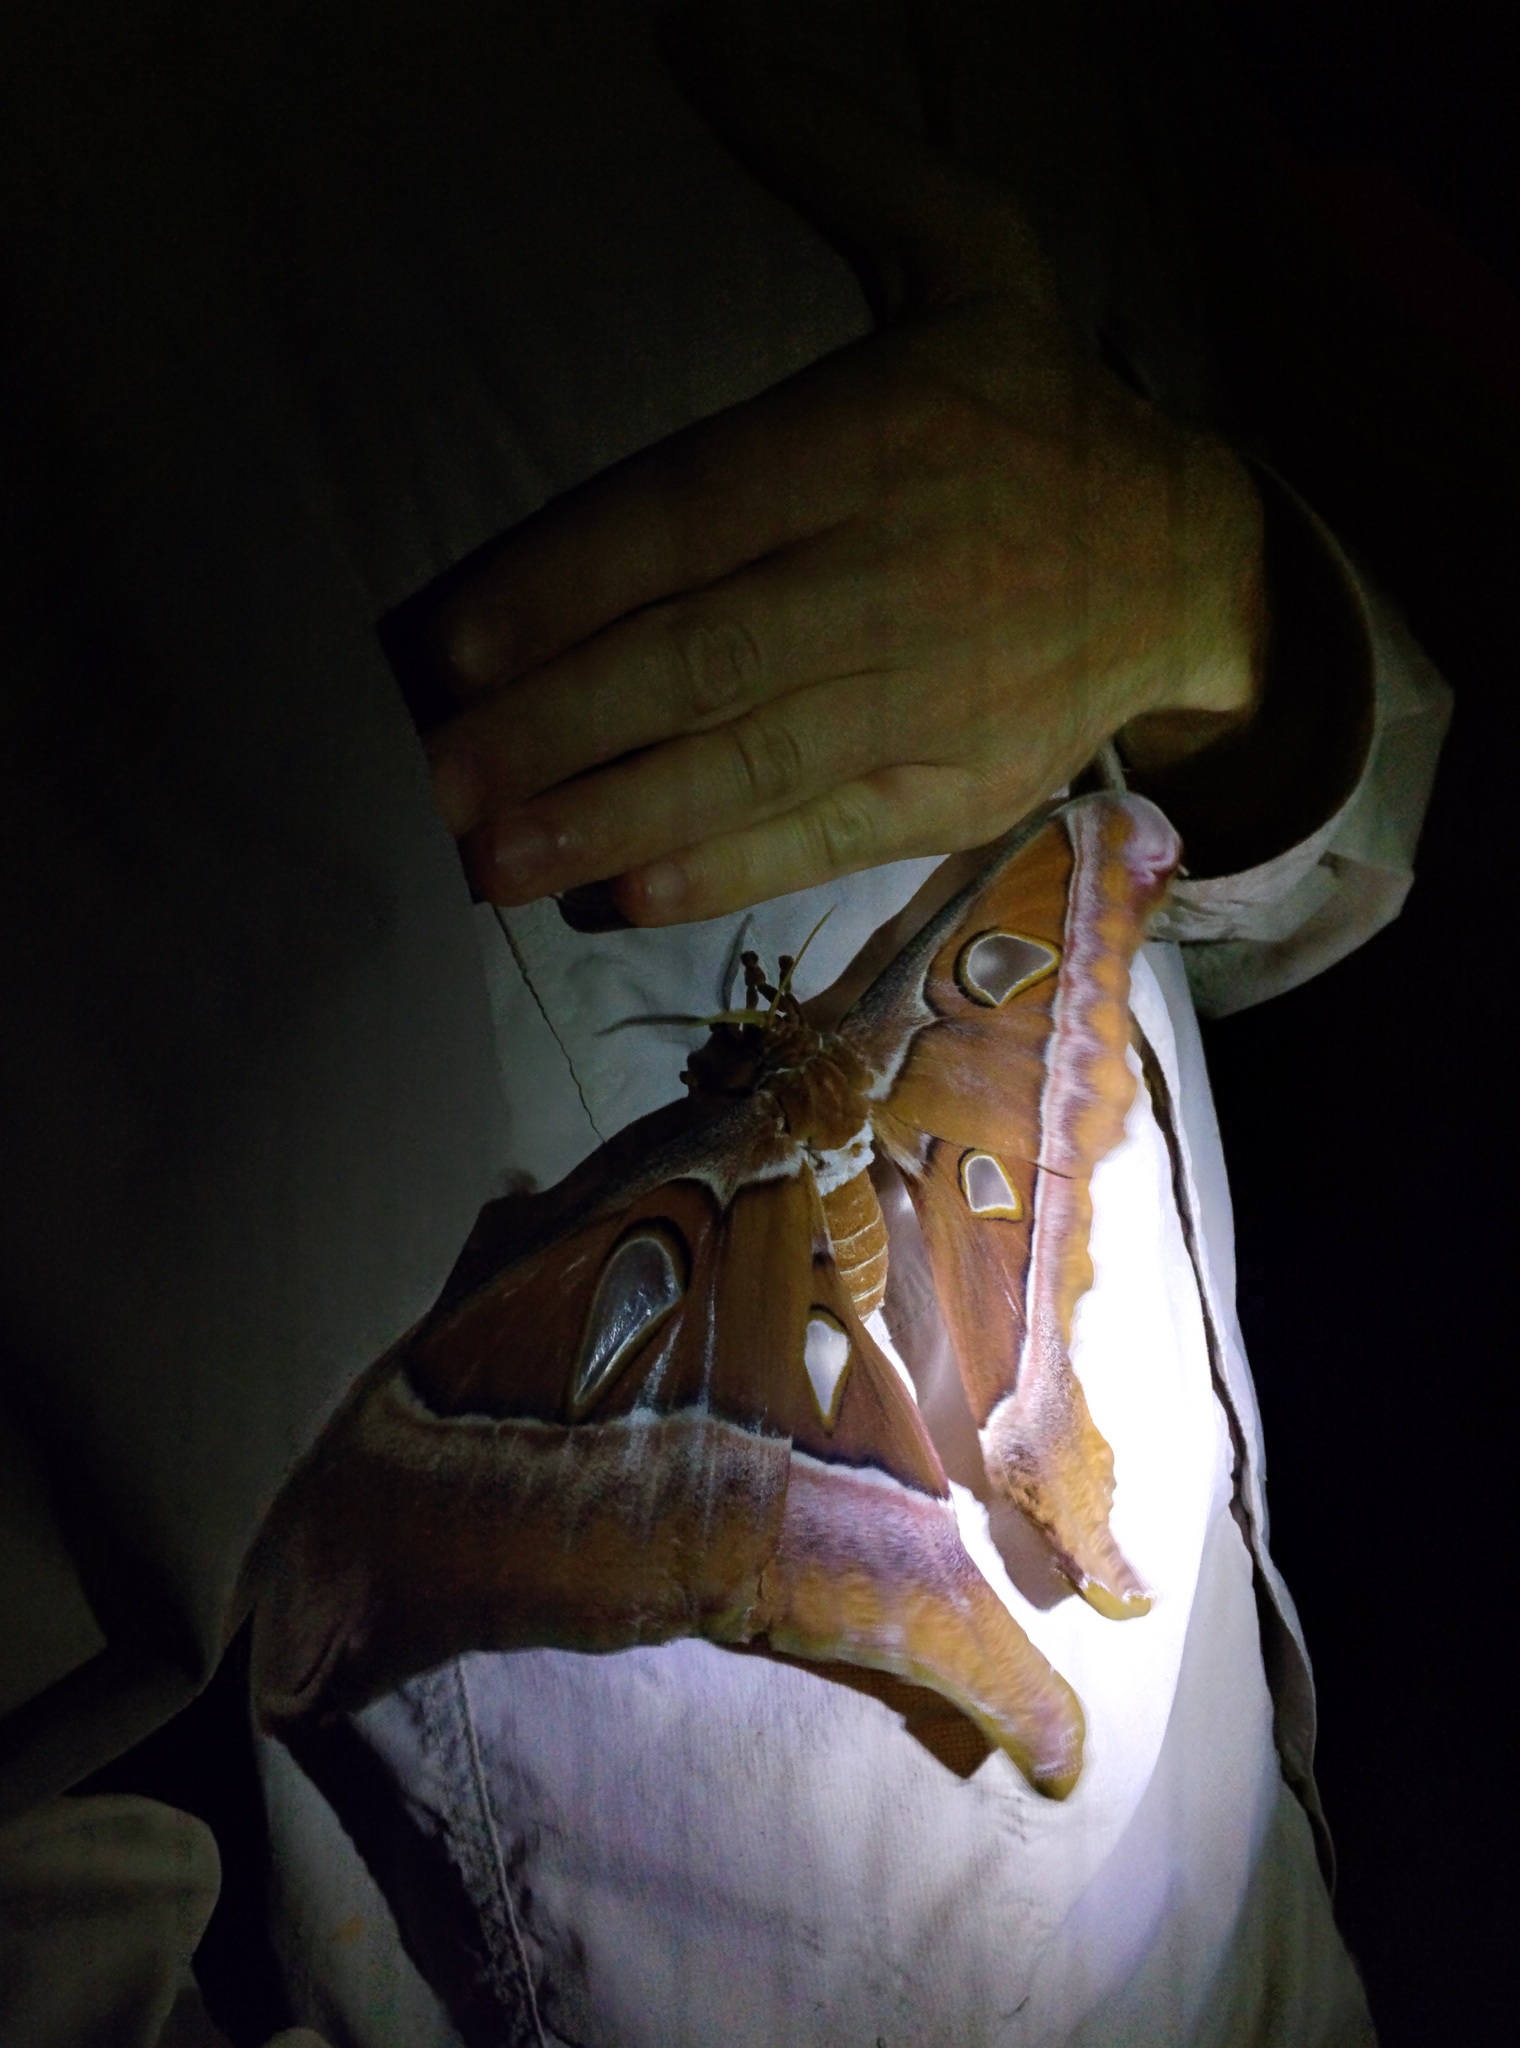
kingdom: Animalia
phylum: Arthropoda
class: Insecta
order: Lepidoptera
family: Saturniidae
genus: Coscinocera
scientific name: Coscinocera hercules
